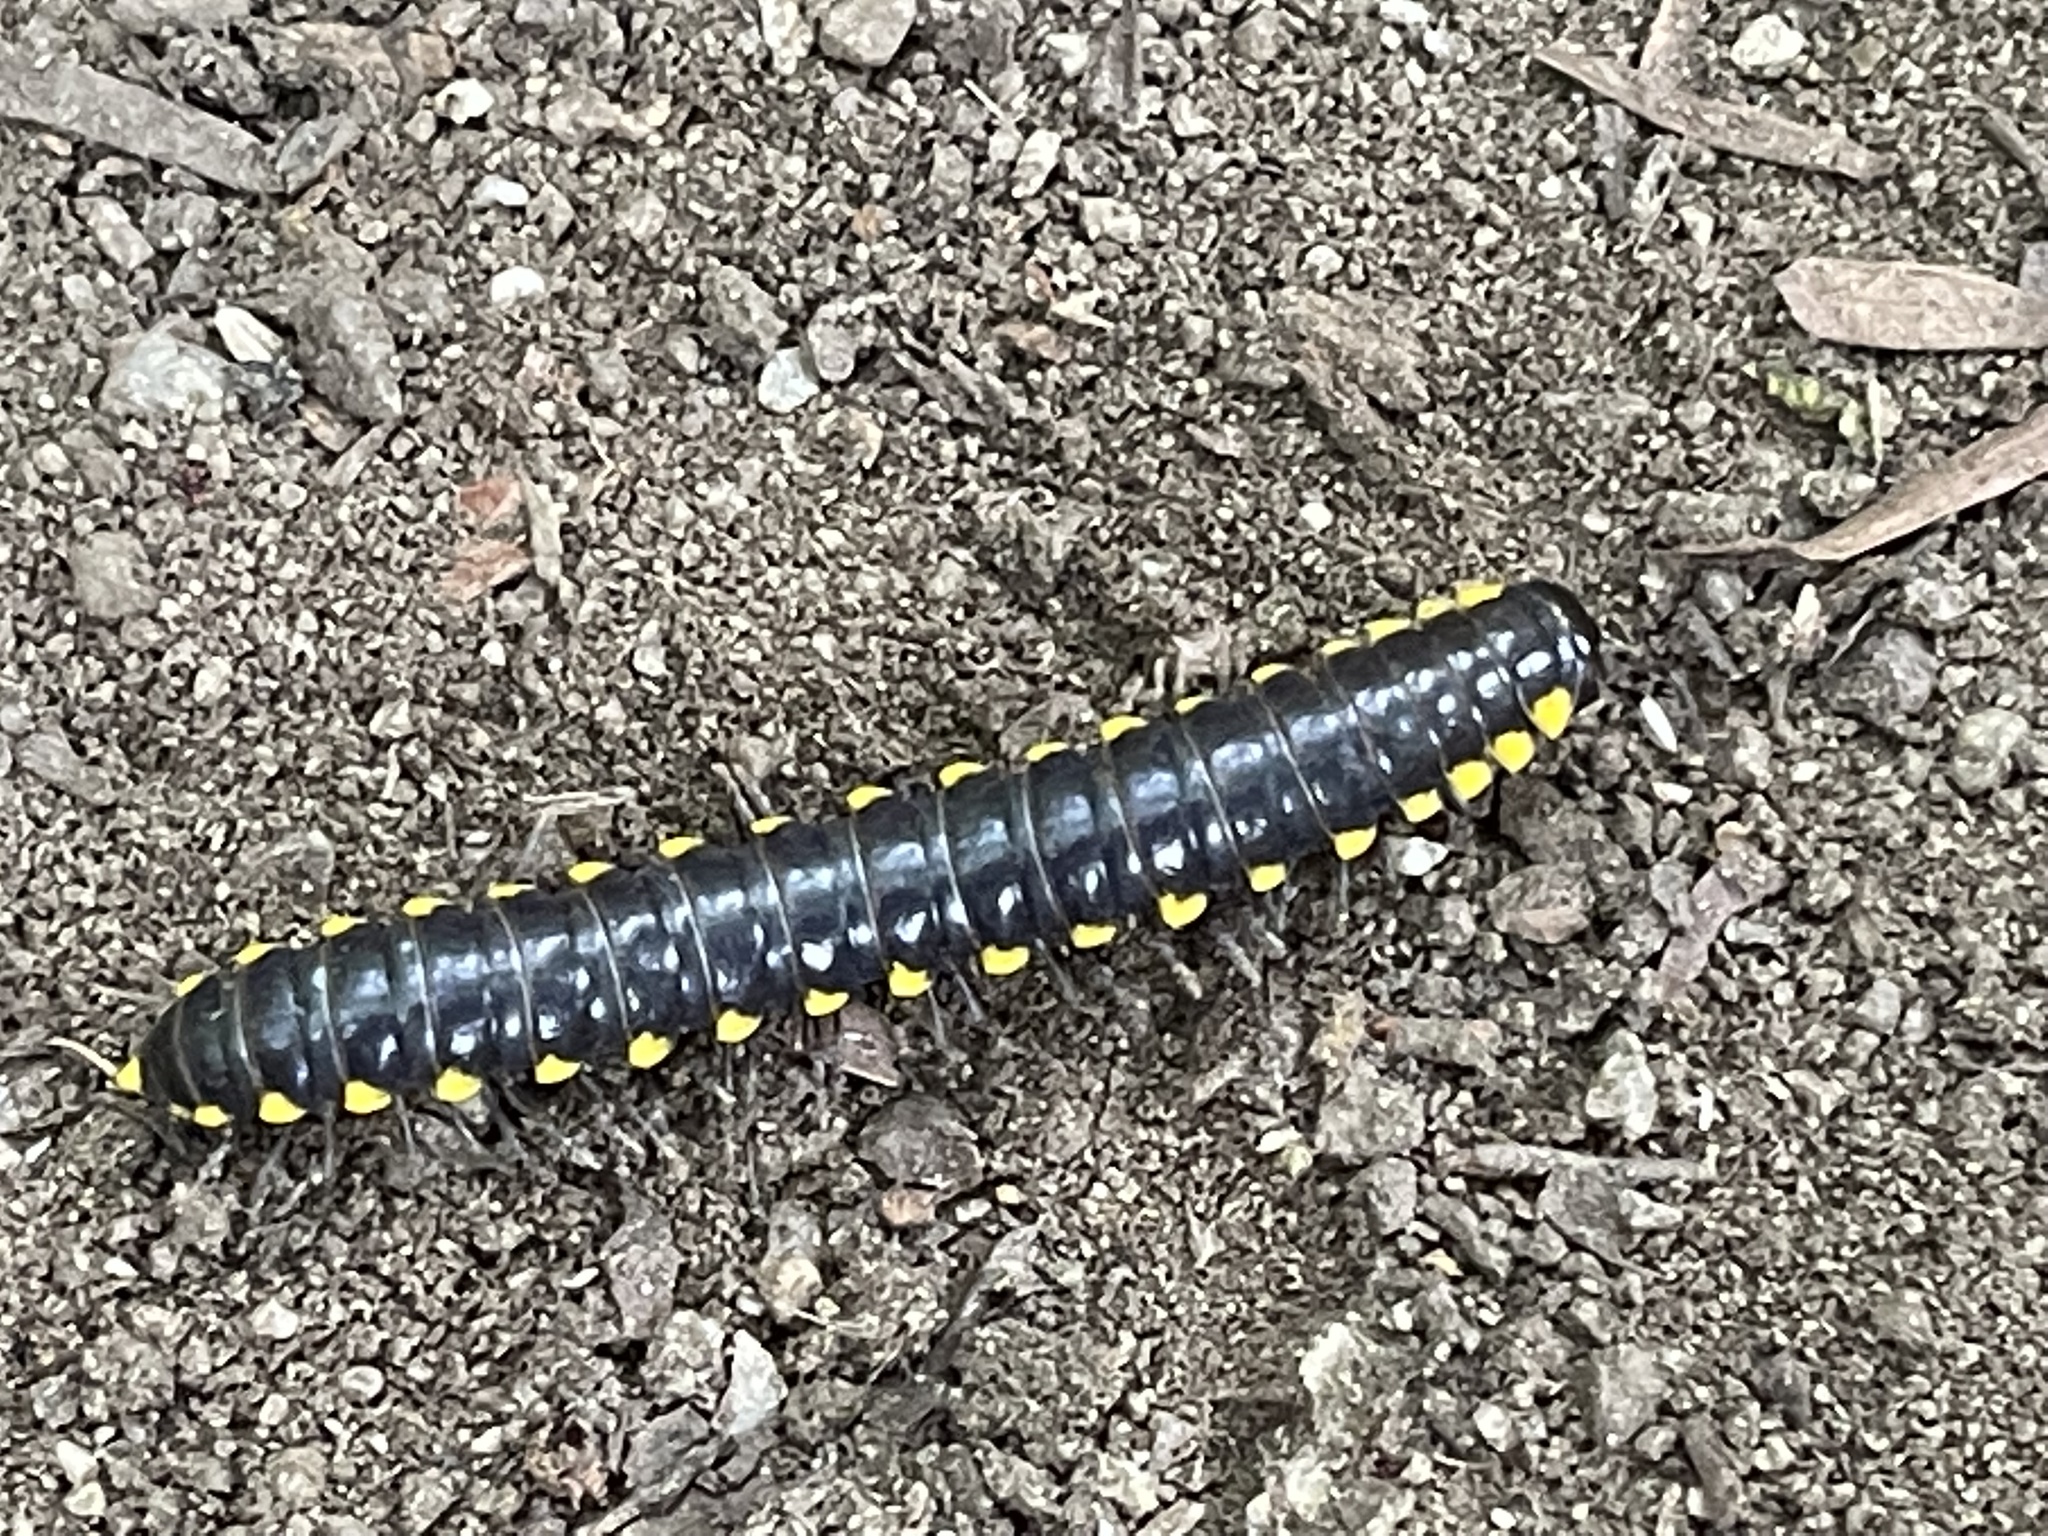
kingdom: Animalia
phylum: Arthropoda
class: Diplopoda
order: Polydesmida
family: Xystodesmidae
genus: Harpaphe
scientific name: Harpaphe haydeniana
